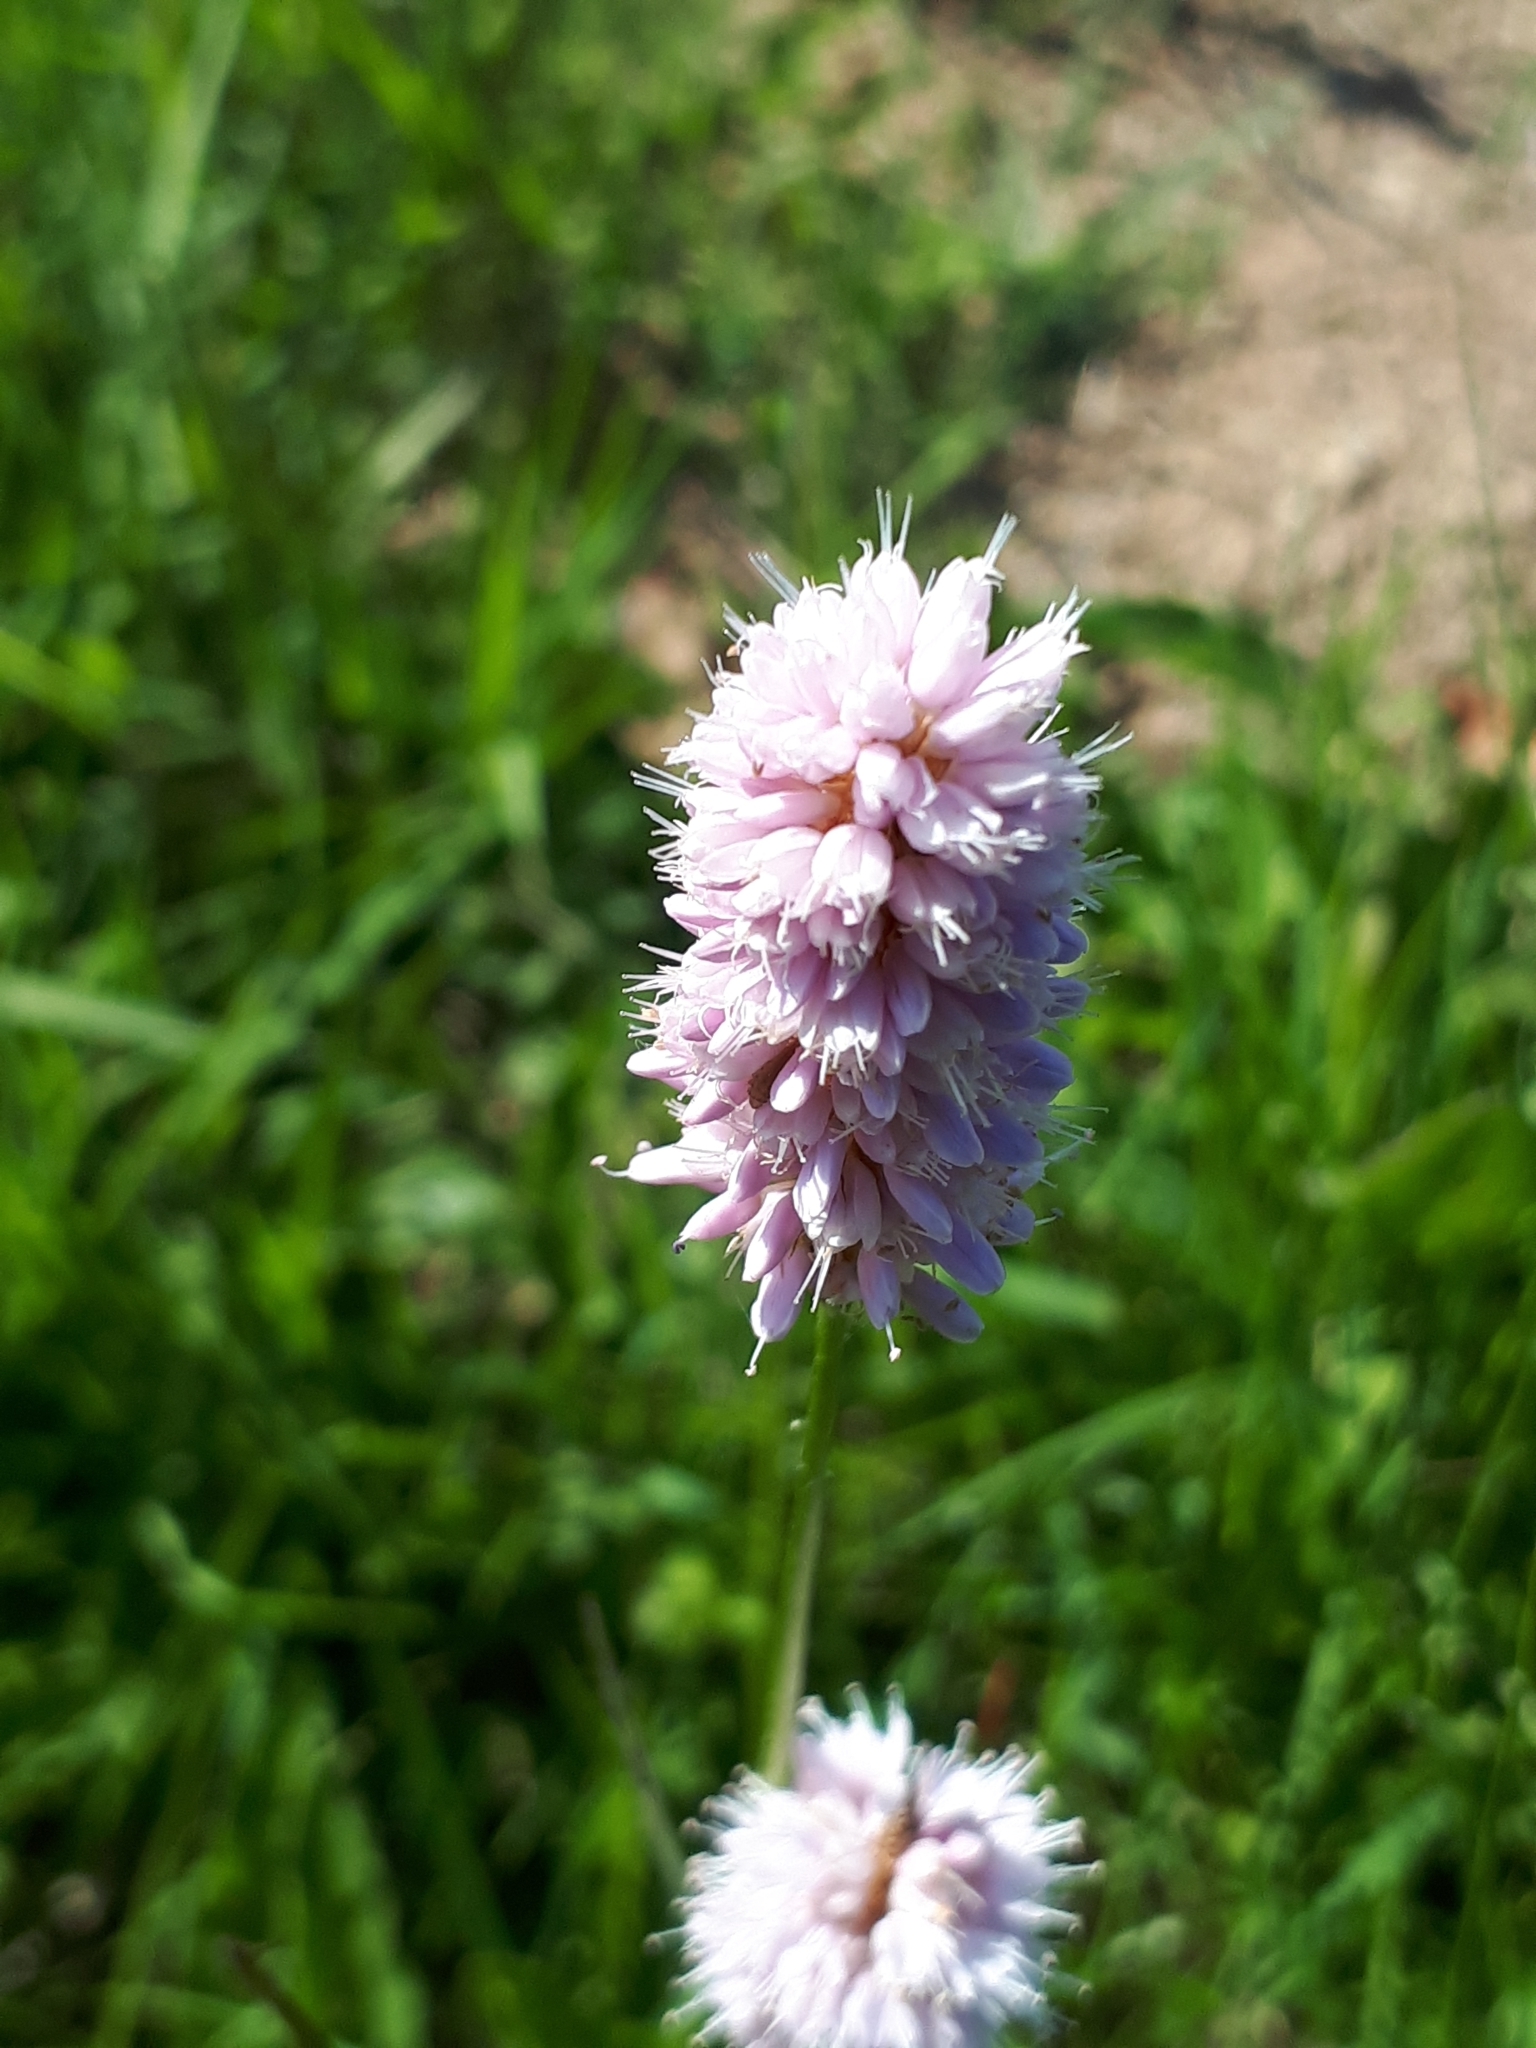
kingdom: Plantae
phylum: Tracheophyta
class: Magnoliopsida
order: Caryophyllales
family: Polygonaceae
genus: Bistorta
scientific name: Bistorta officinalis
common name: Common bistort
